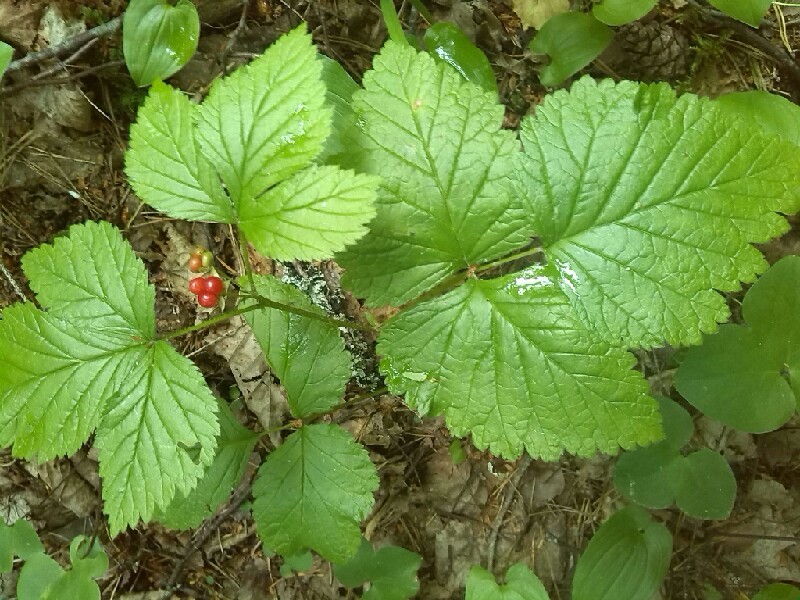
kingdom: Plantae
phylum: Tracheophyta
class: Magnoliopsida
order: Rosales
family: Rosaceae
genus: Rubus
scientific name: Rubus saxatilis
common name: Stone bramble
